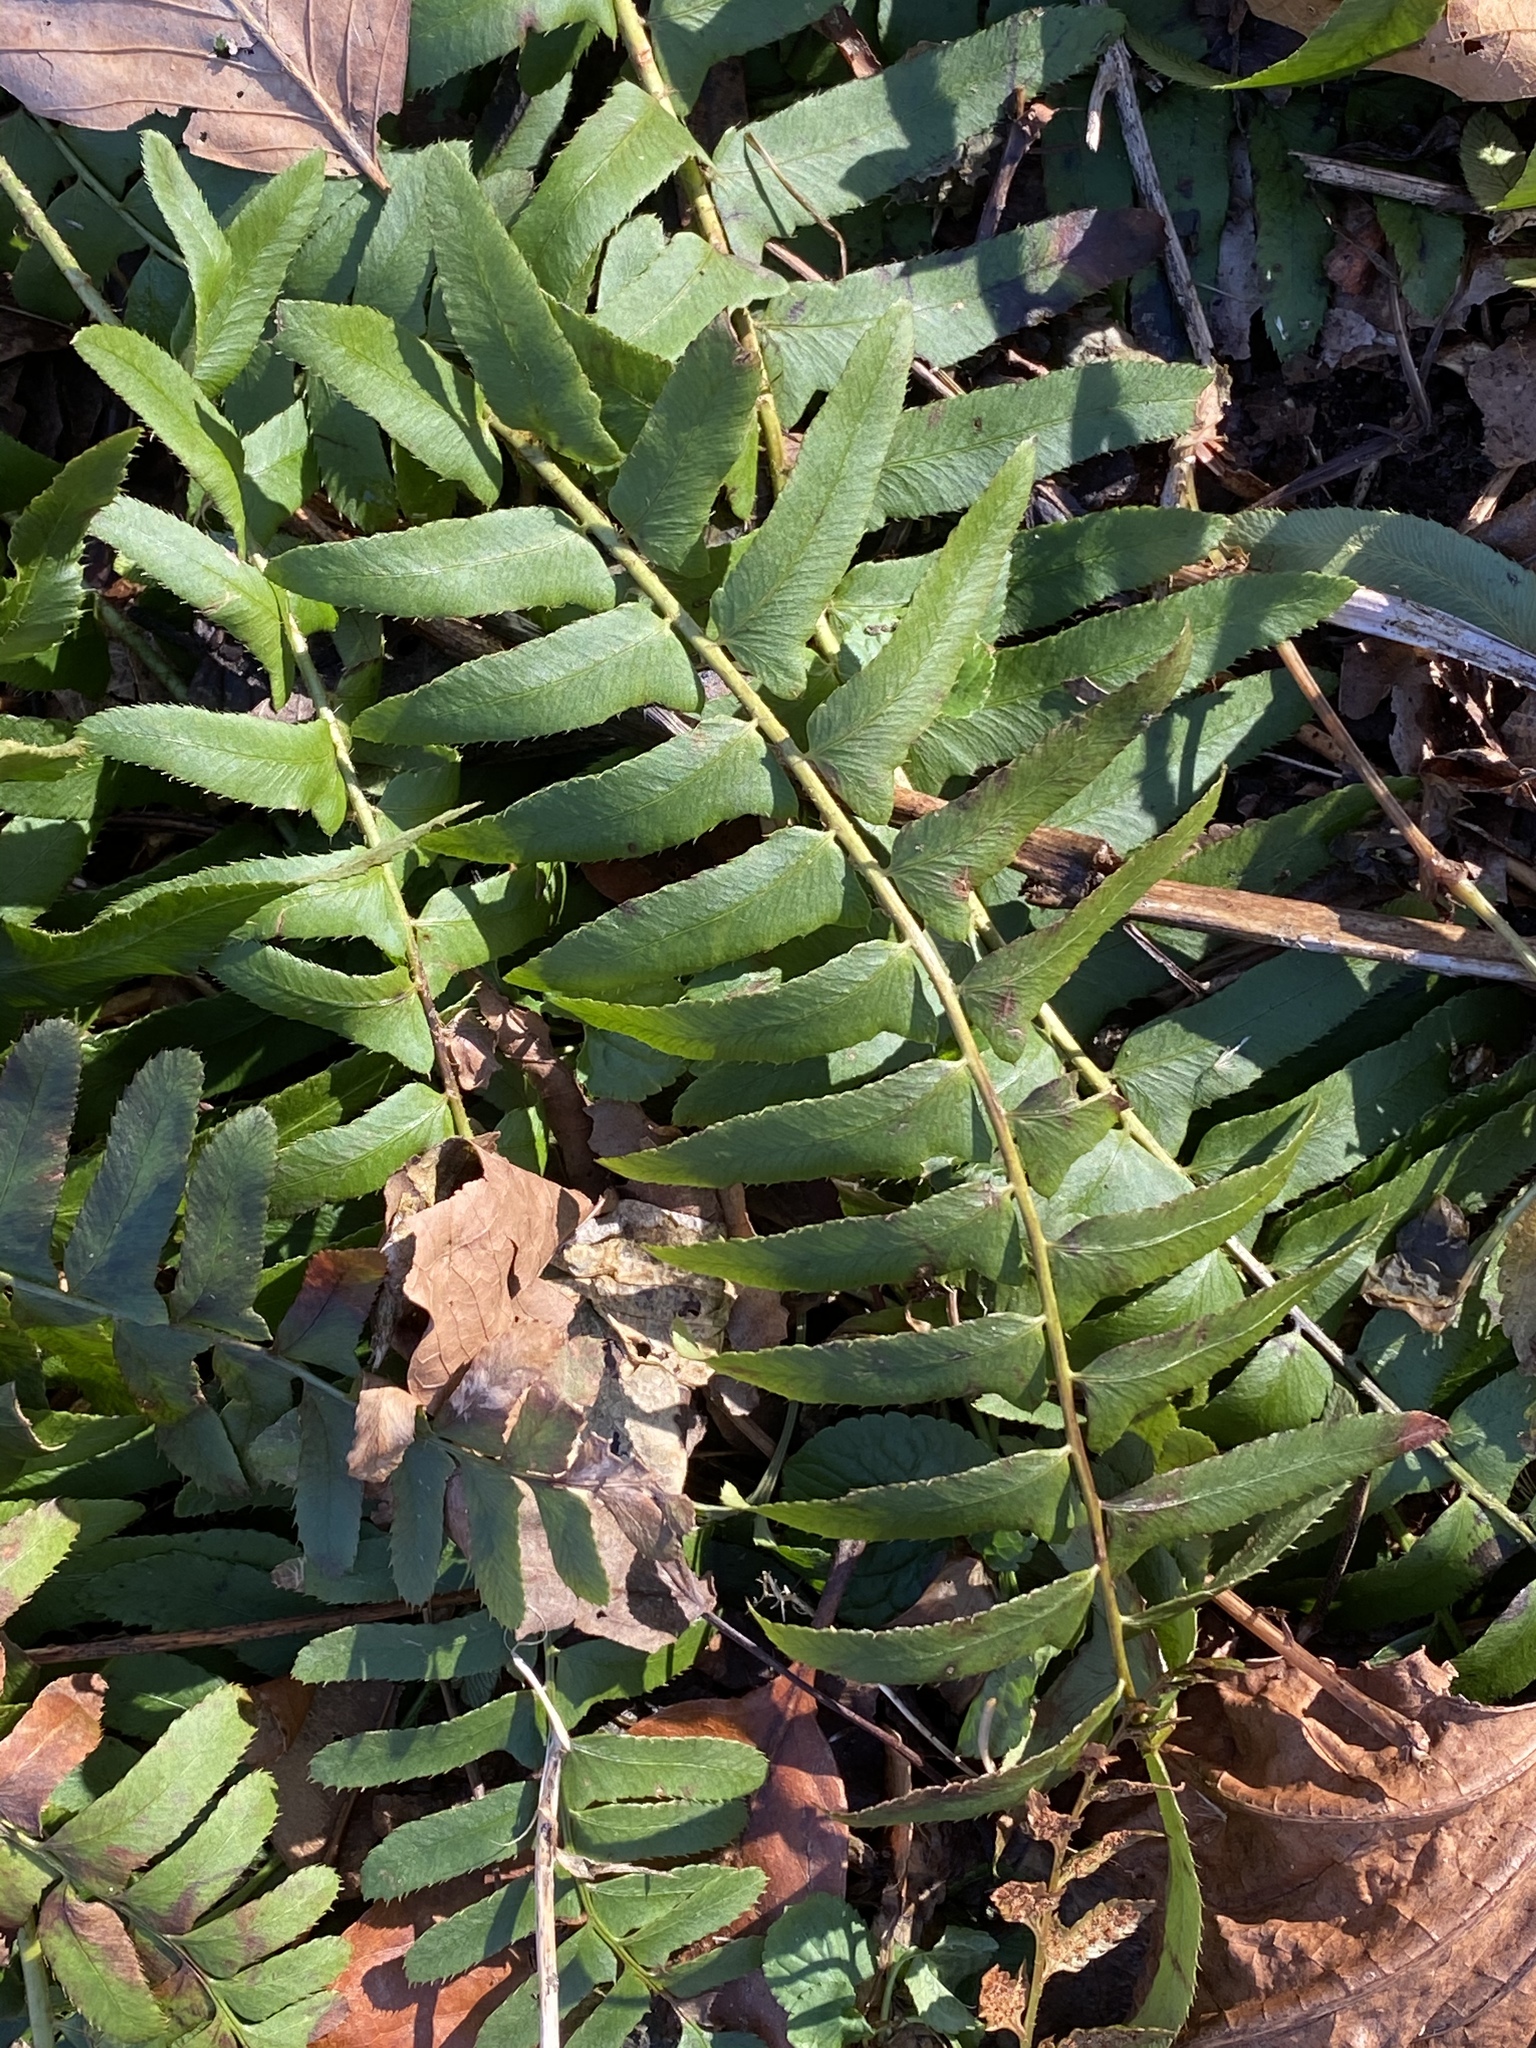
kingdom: Plantae
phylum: Tracheophyta
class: Polypodiopsida
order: Polypodiales
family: Dryopteridaceae
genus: Polystichum
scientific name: Polystichum acrostichoides
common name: Christmas fern
